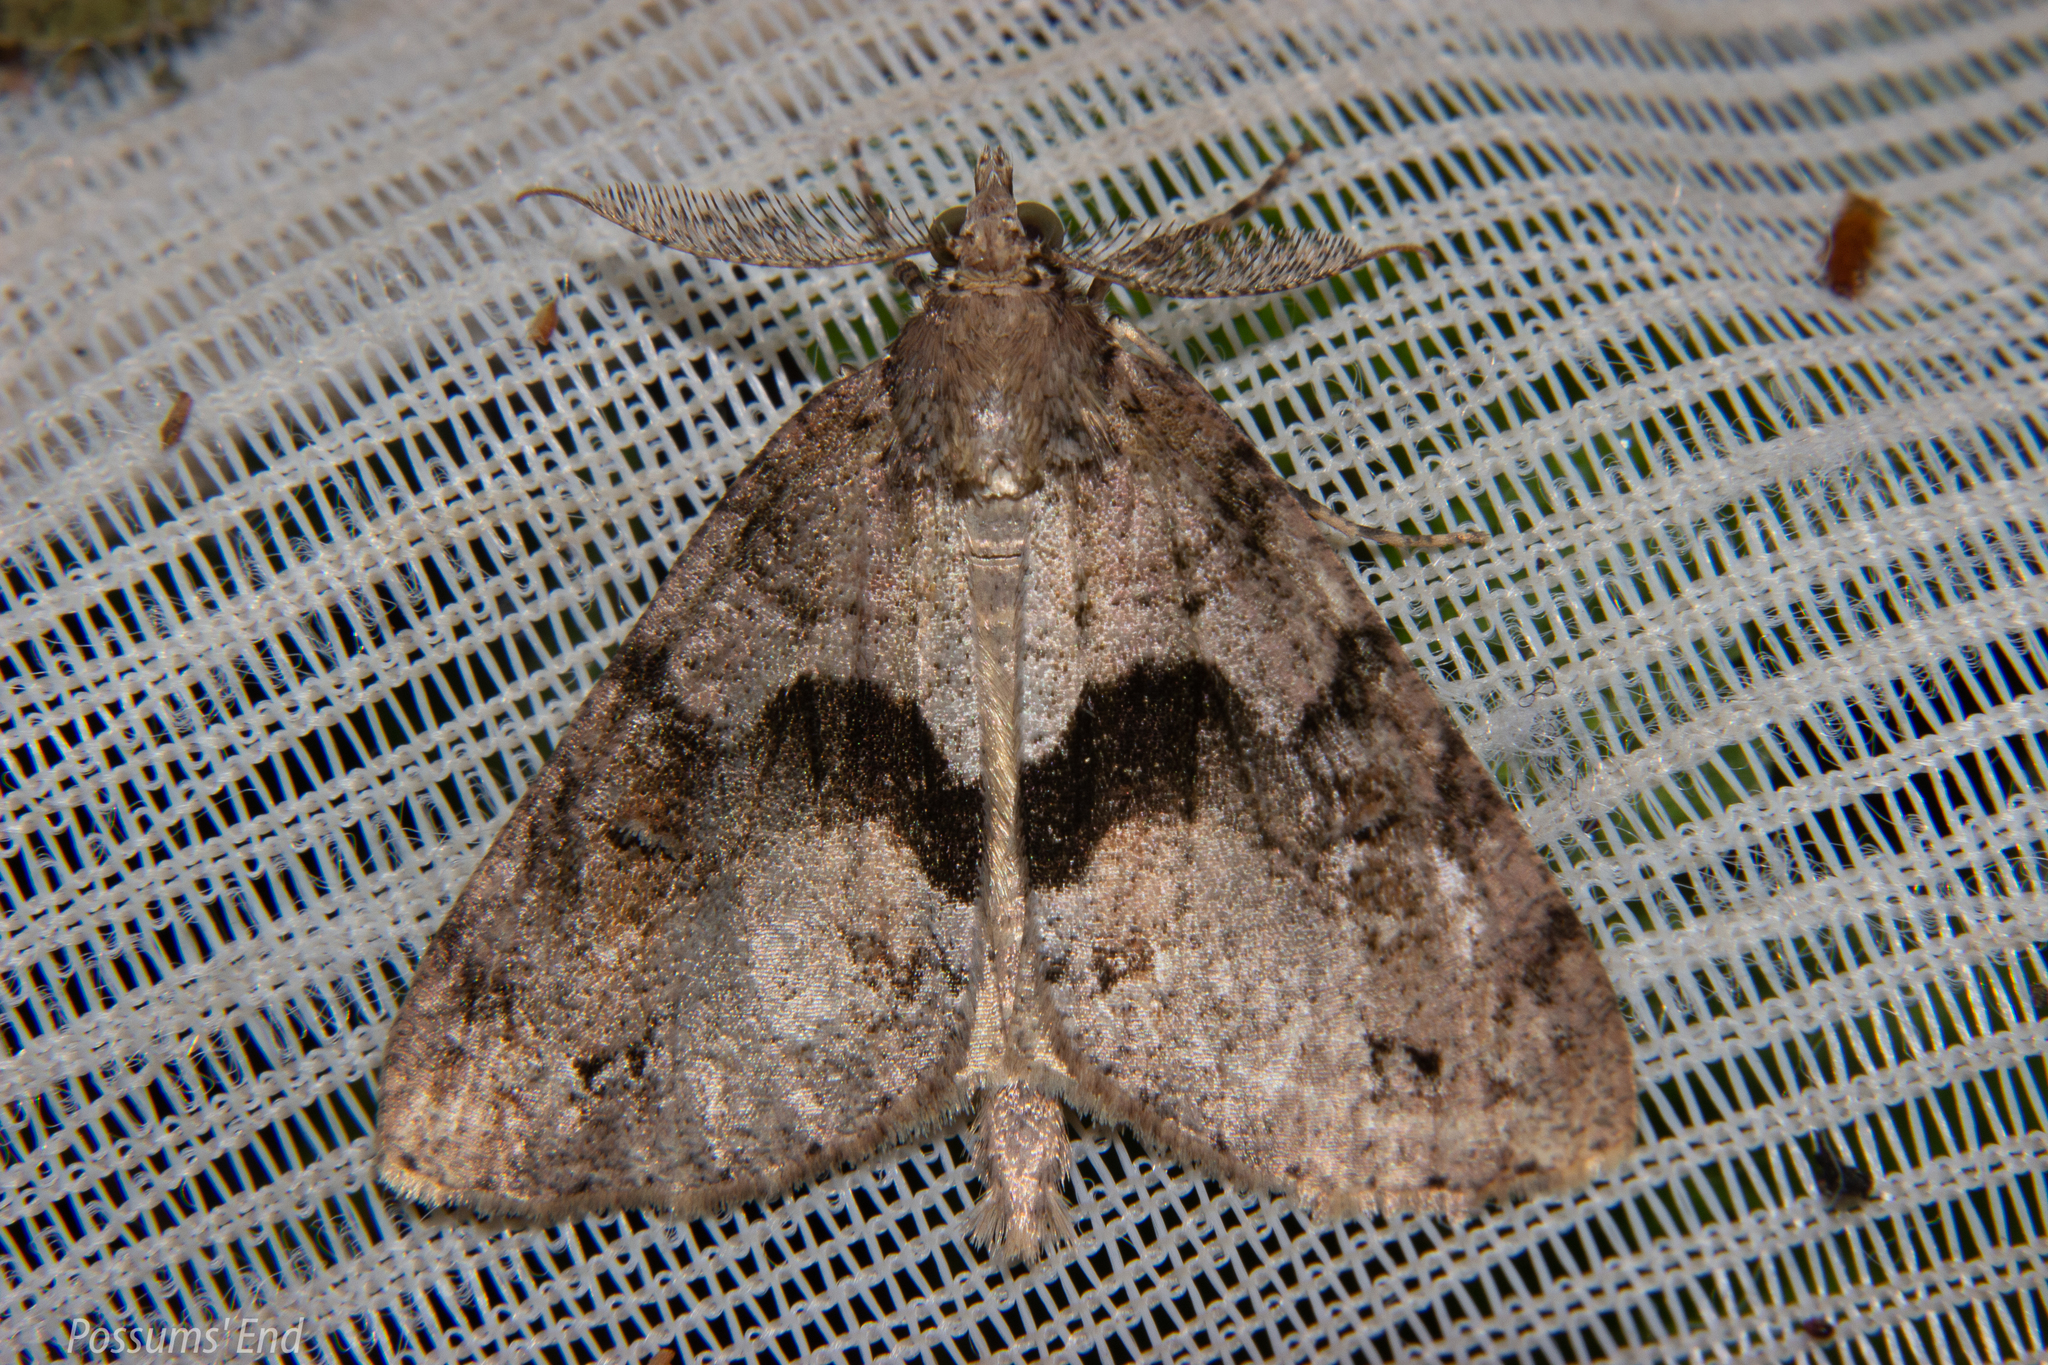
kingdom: Animalia
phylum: Arthropoda
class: Insecta
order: Lepidoptera
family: Geometridae
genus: Pseudocoremia
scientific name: Pseudocoremia suavis
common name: Common forest looper
